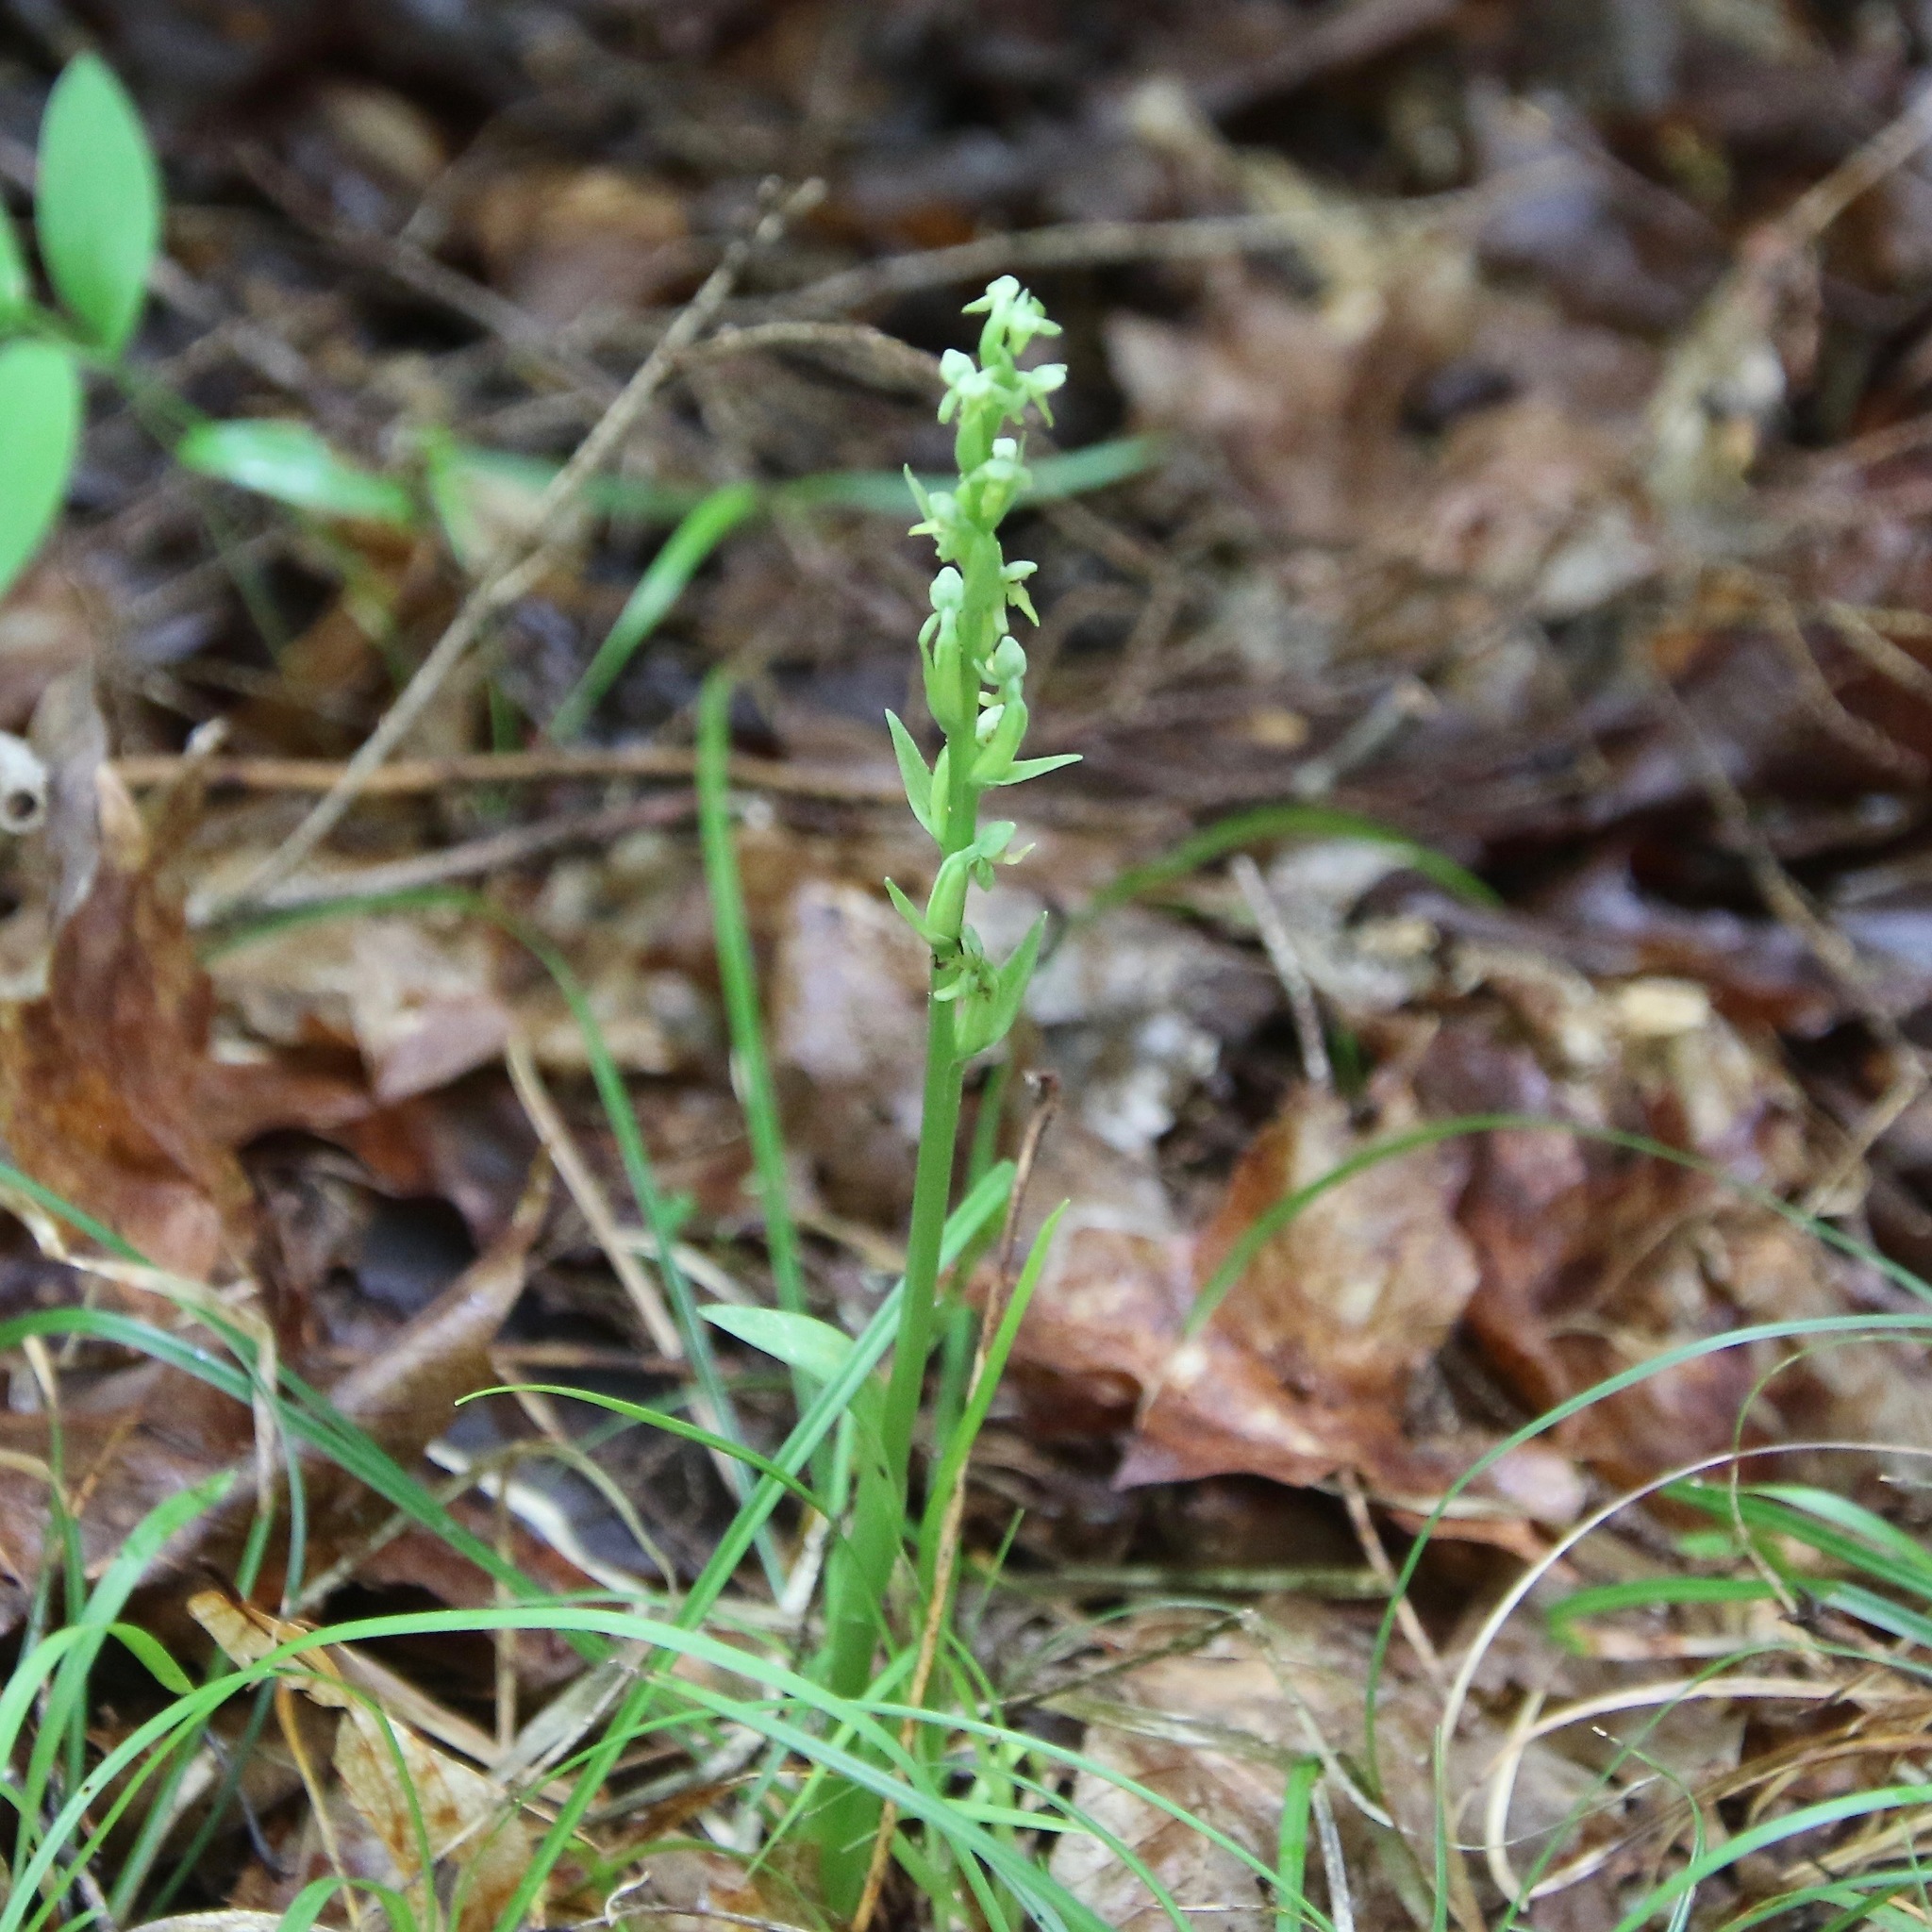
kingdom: Plantae
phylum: Tracheophyta
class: Liliopsida
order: Asparagales
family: Orchidaceae
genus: Platanthera
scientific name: Platanthera aquilonis
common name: Northern green orchid
